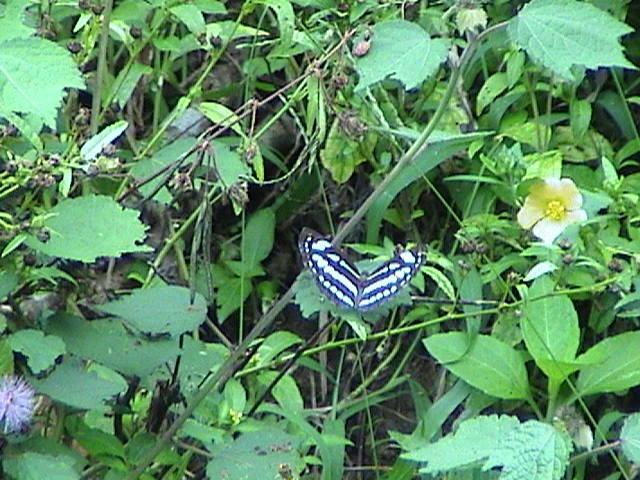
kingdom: Animalia
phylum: Arthropoda
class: Insecta
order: Lepidoptera
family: Nymphalidae
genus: Neptis
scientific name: Neptis hylas
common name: Common sailer
